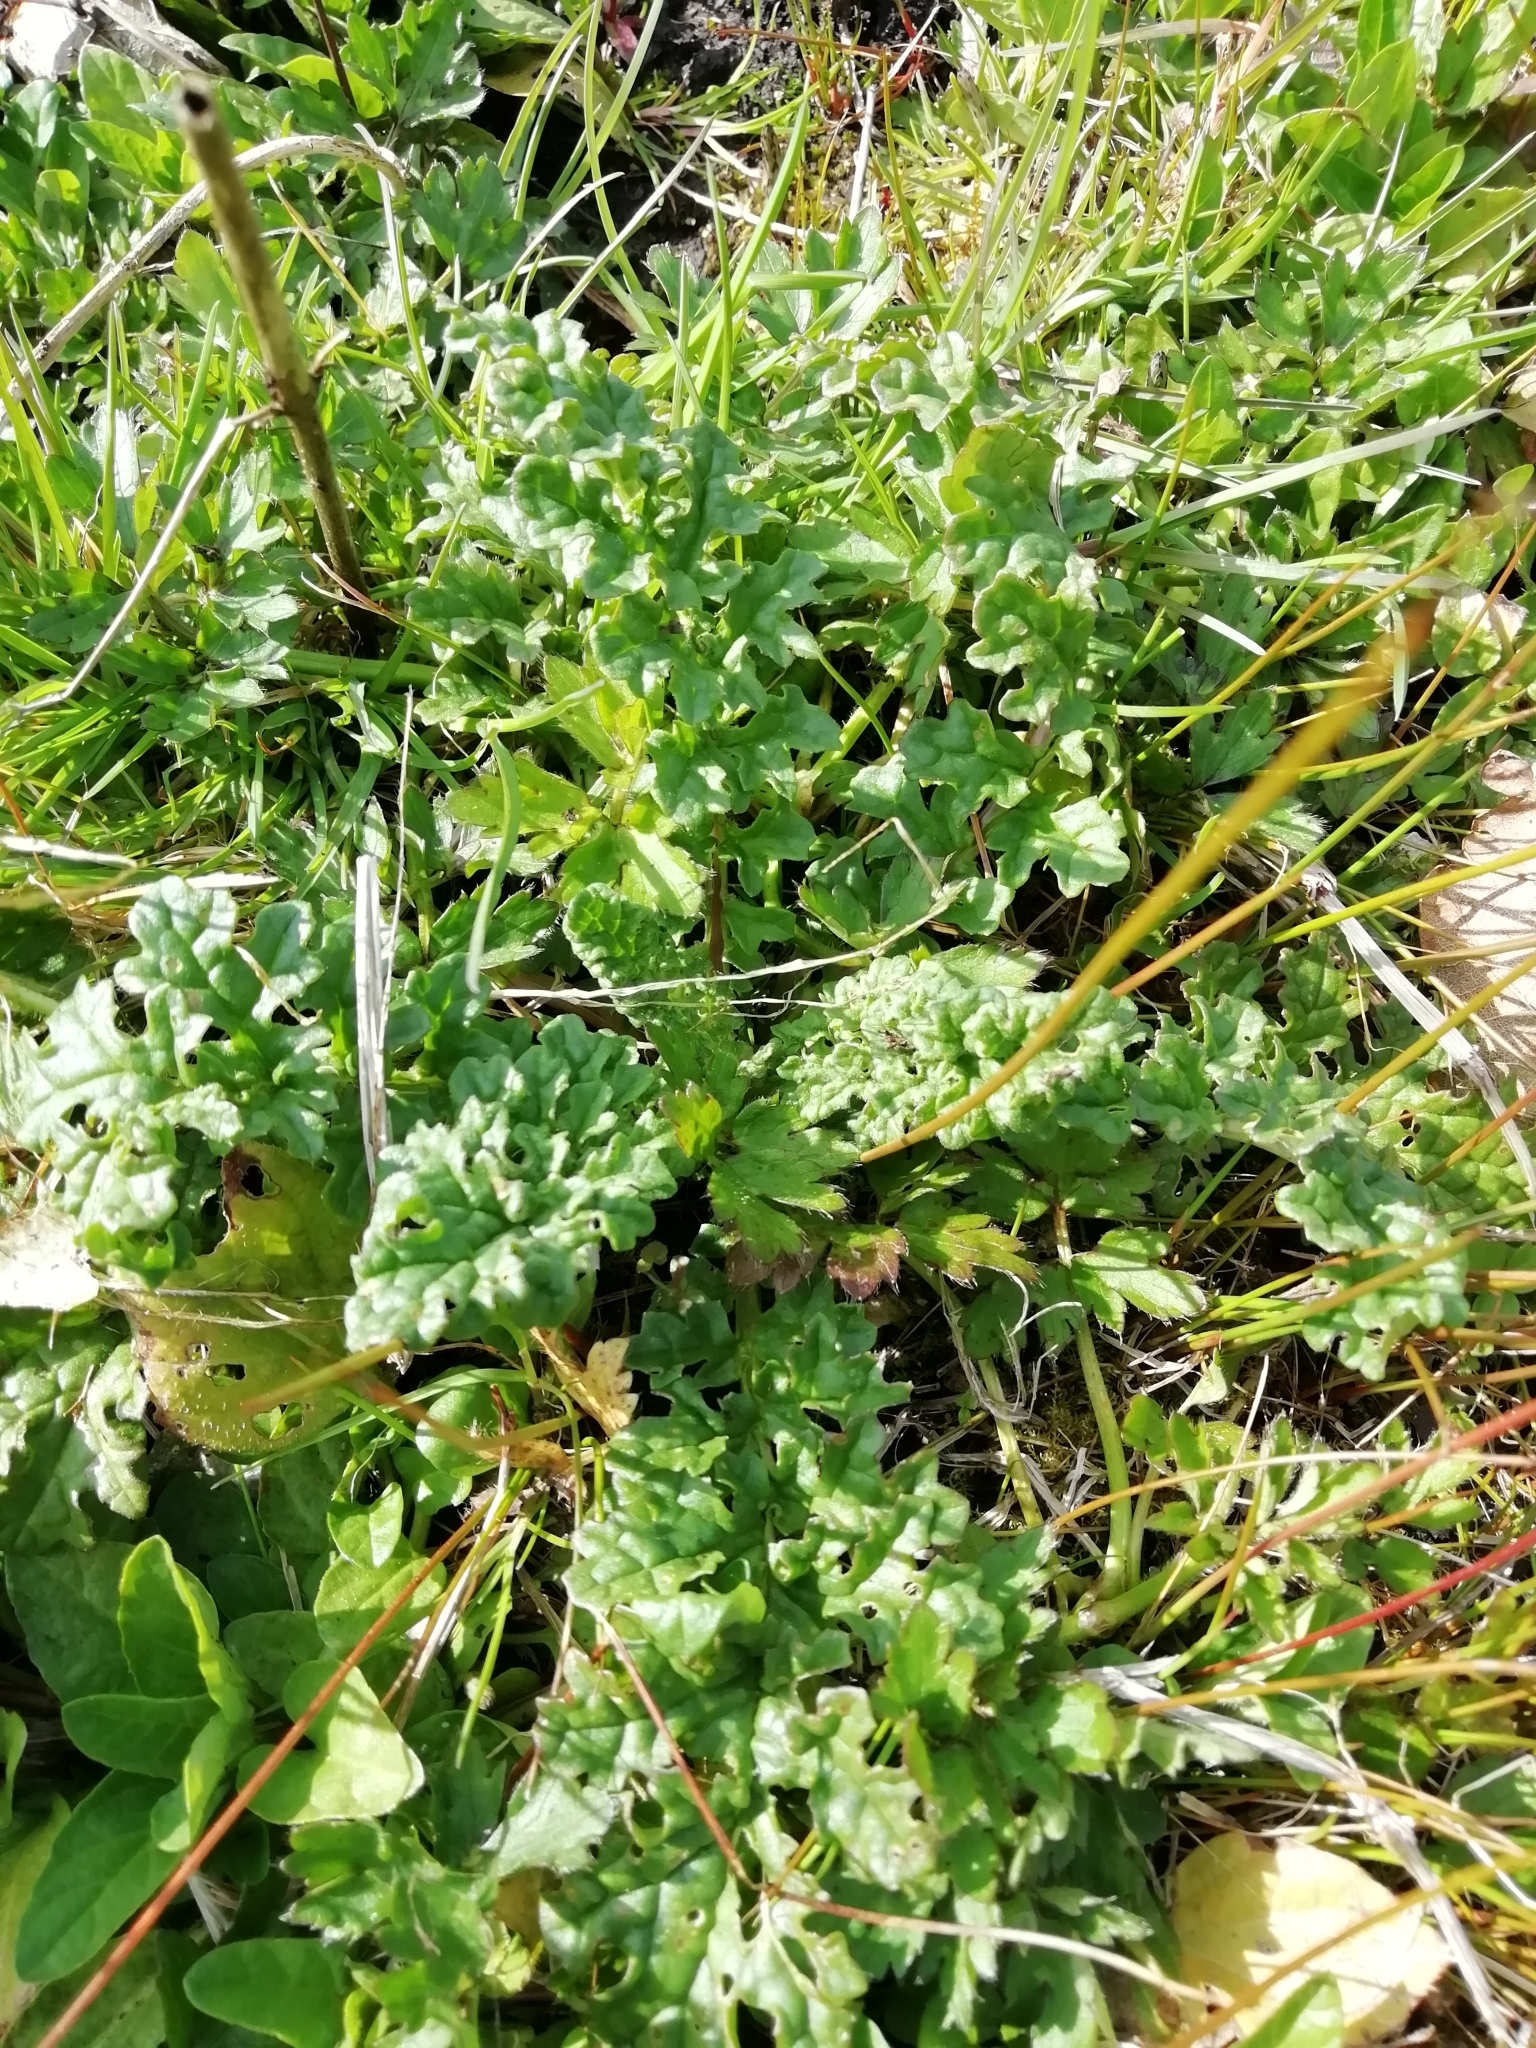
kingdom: Plantae
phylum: Tracheophyta
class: Magnoliopsida
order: Asterales
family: Asteraceae
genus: Jacobaea
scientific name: Jacobaea vulgaris
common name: Stinking willie
